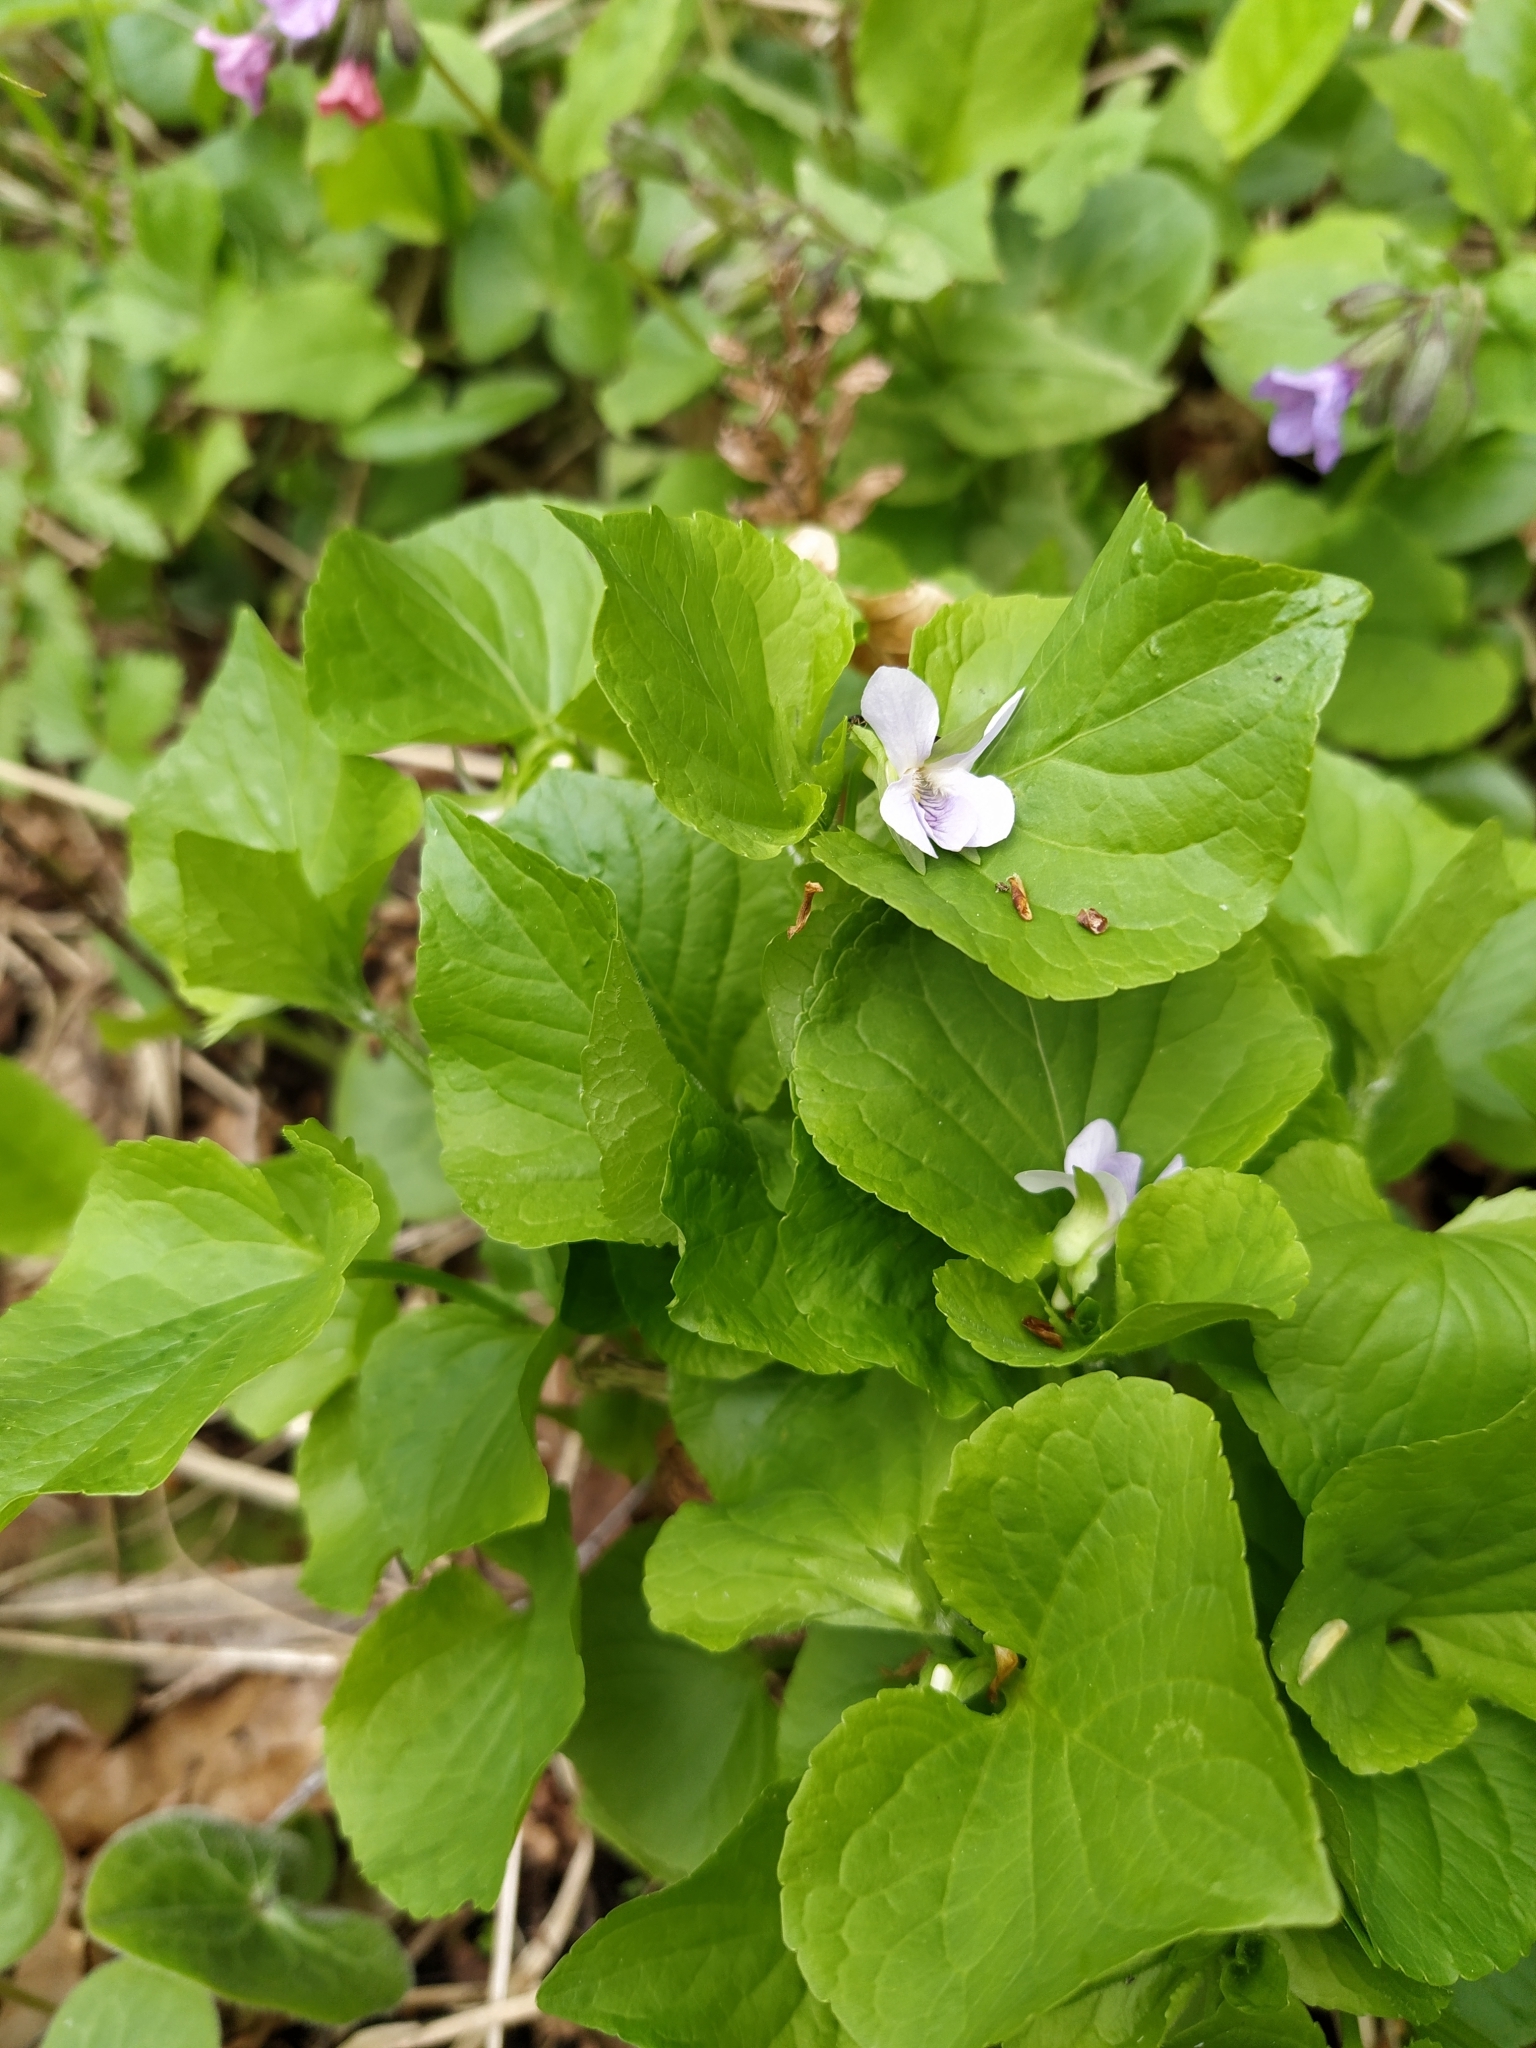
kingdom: Plantae
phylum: Tracheophyta
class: Magnoliopsida
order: Malpighiales
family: Violaceae
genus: Viola
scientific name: Viola mirabilis
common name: Wonder violet
